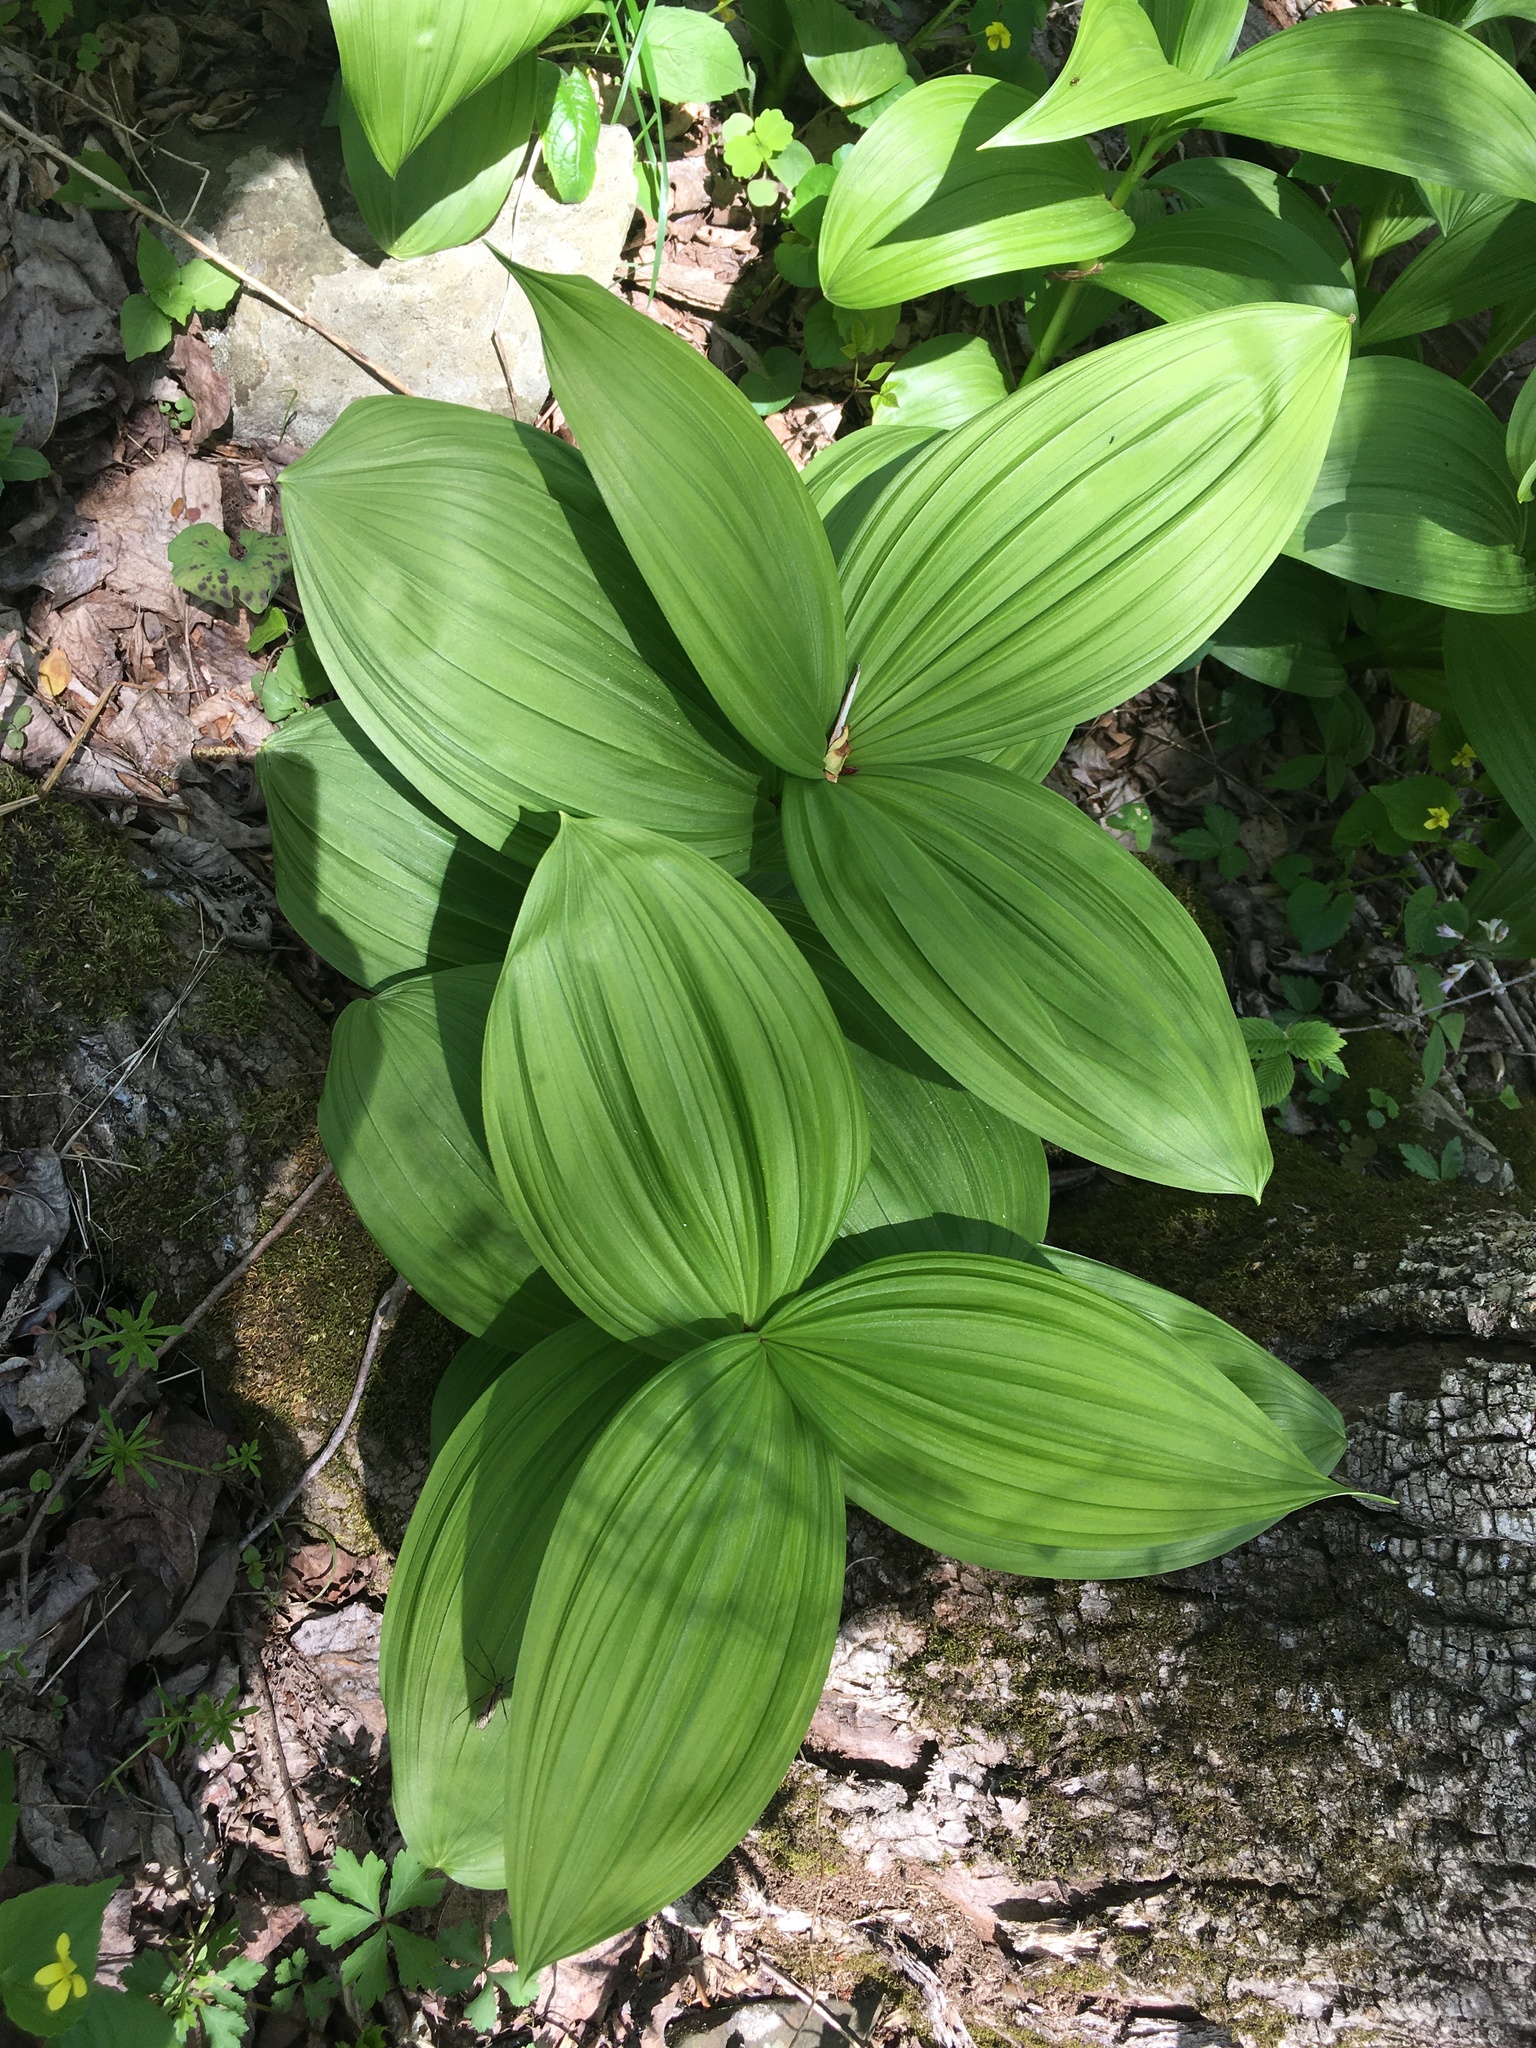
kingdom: Plantae
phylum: Tracheophyta
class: Liliopsida
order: Liliales
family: Melanthiaceae
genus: Veratrum
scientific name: Veratrum viride
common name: American false hellebore
